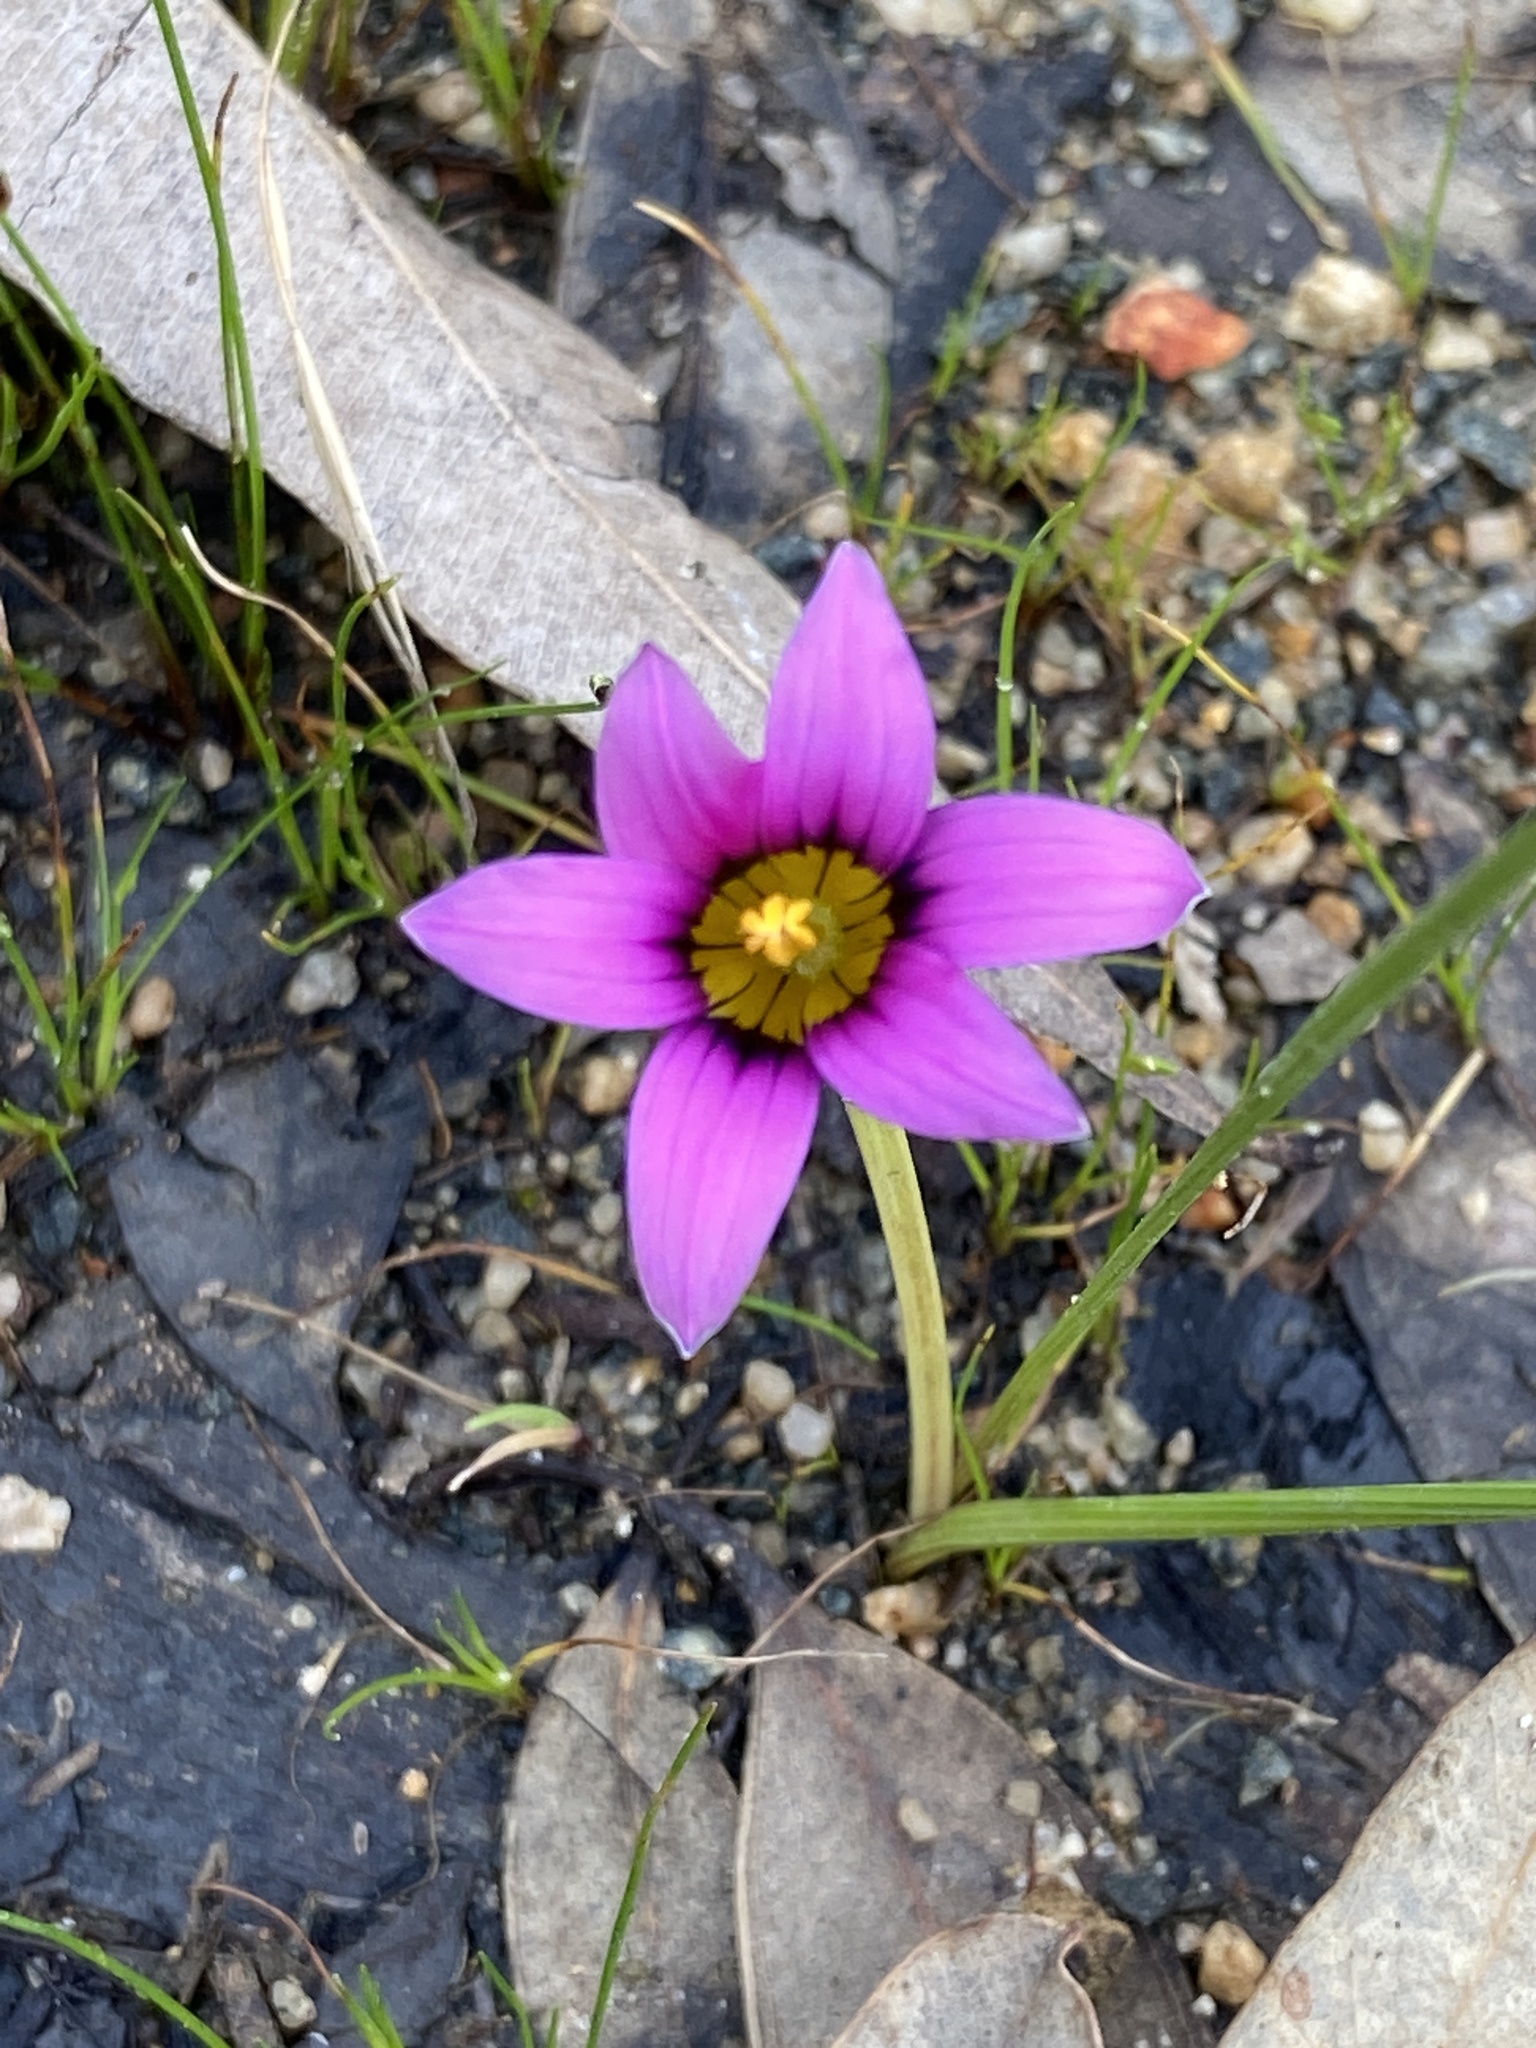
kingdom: Plantae
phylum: Tracheophyta
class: Liliopsida
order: Asparagales
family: Iridaceae
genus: Romulea
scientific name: Romulea rosea
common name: Oniongrass
